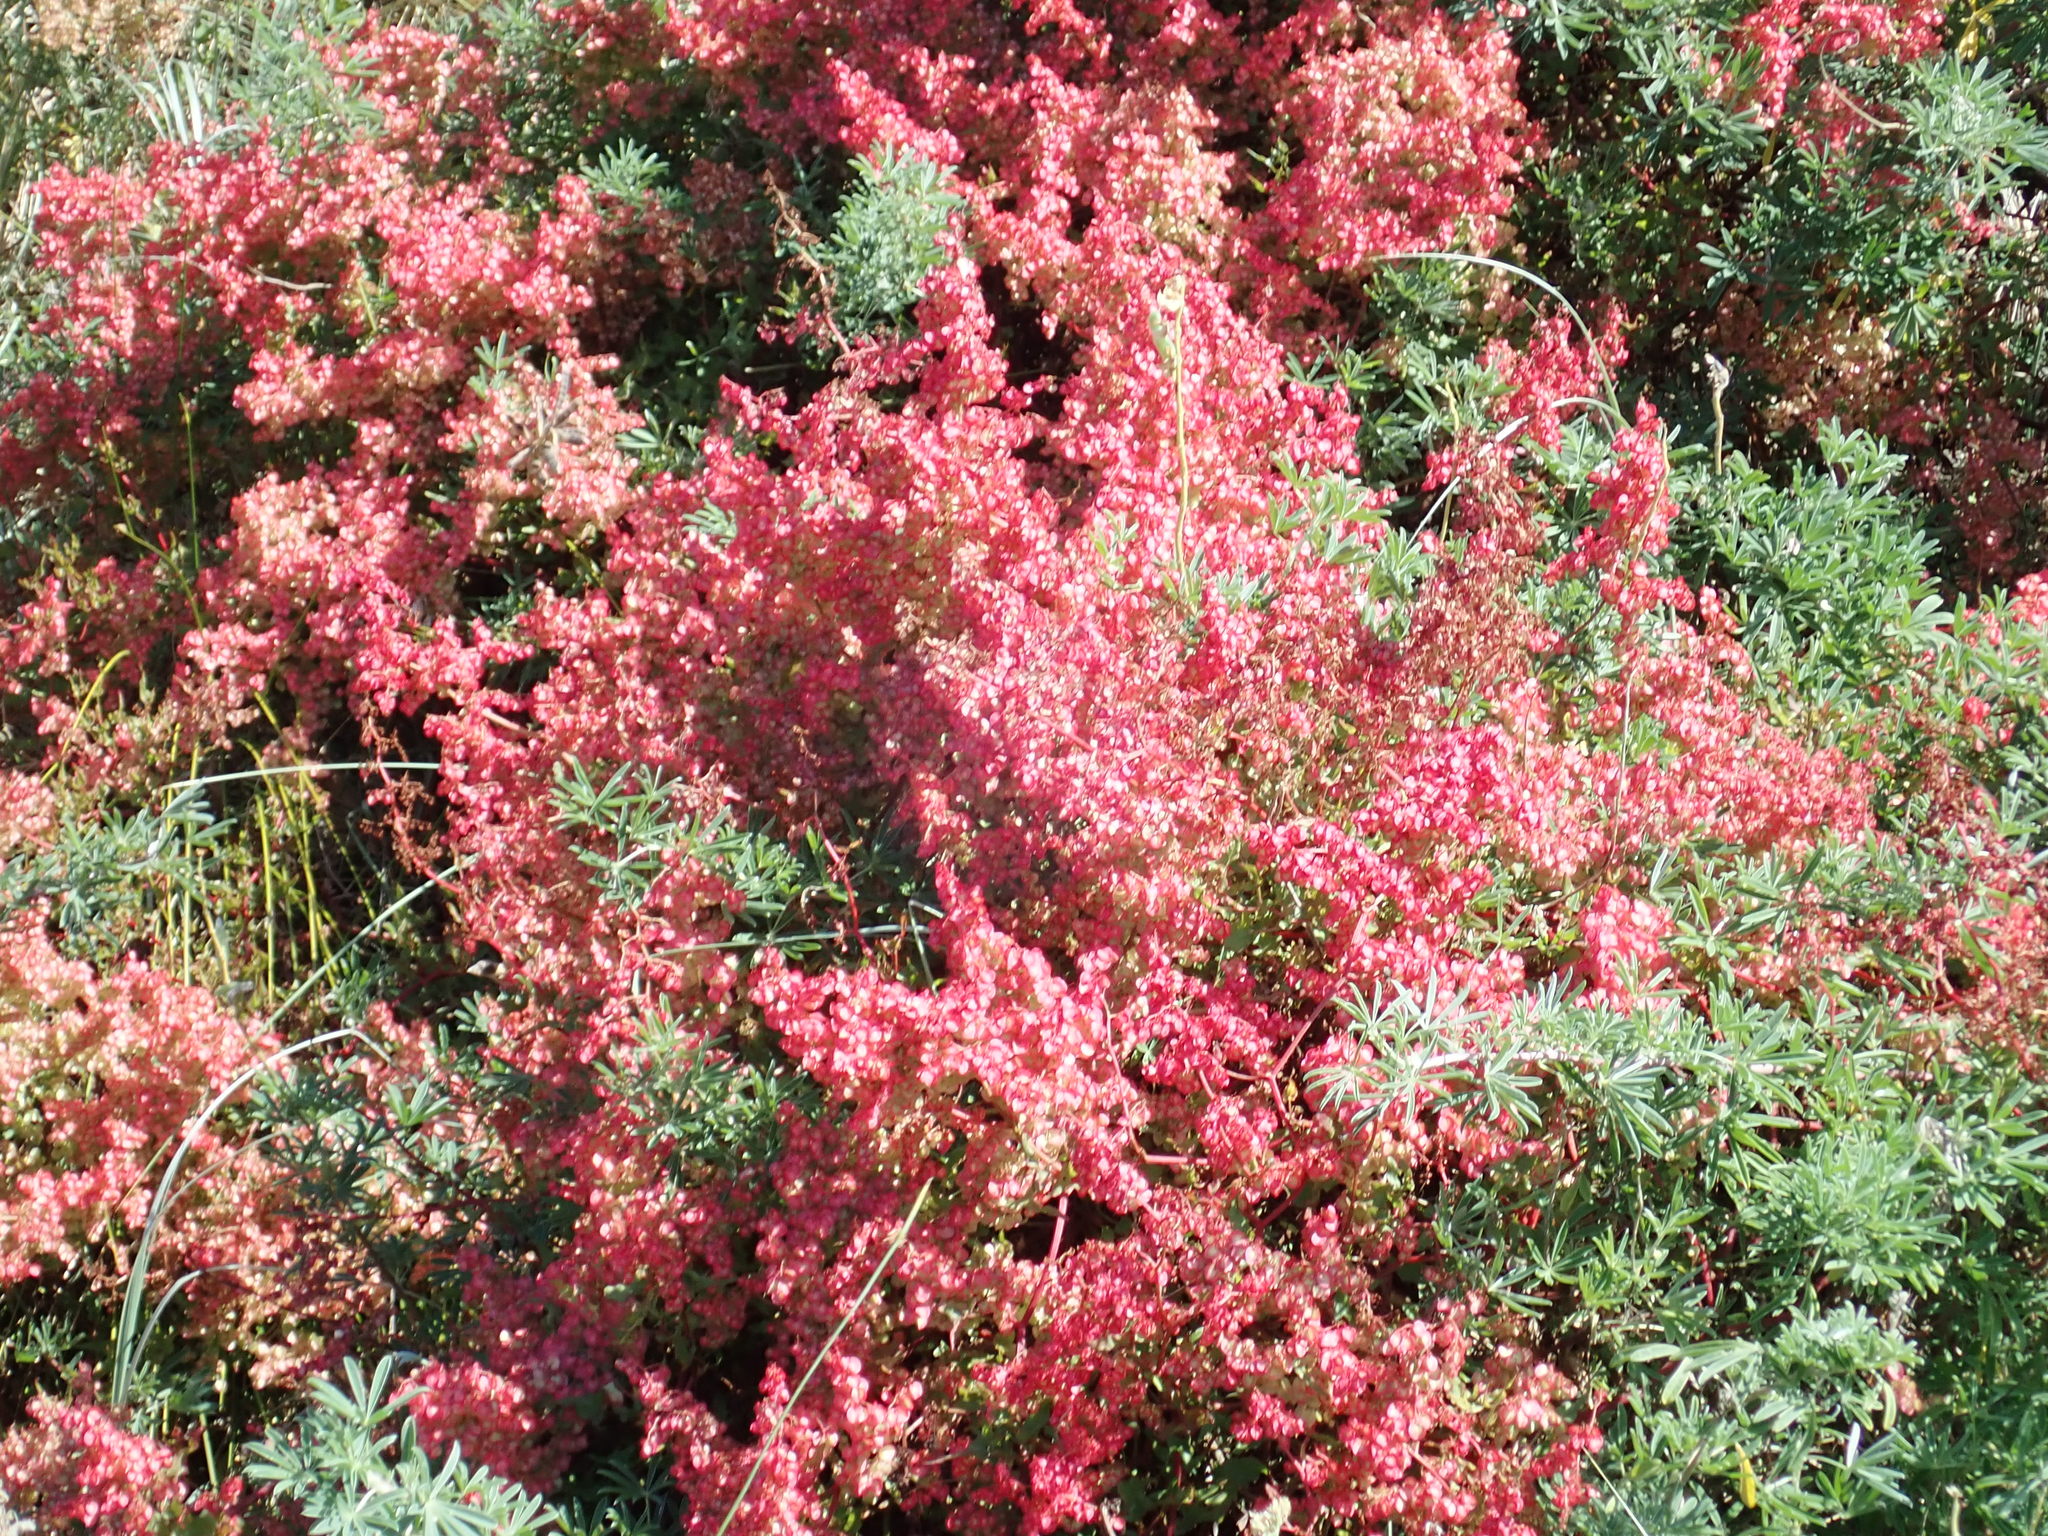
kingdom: Plantae
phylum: Tracheophyta
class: Magnoliopsida
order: Caryophyllales
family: Polygonaceae
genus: Rumex
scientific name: Rumex sagittatus
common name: Climbing dock
